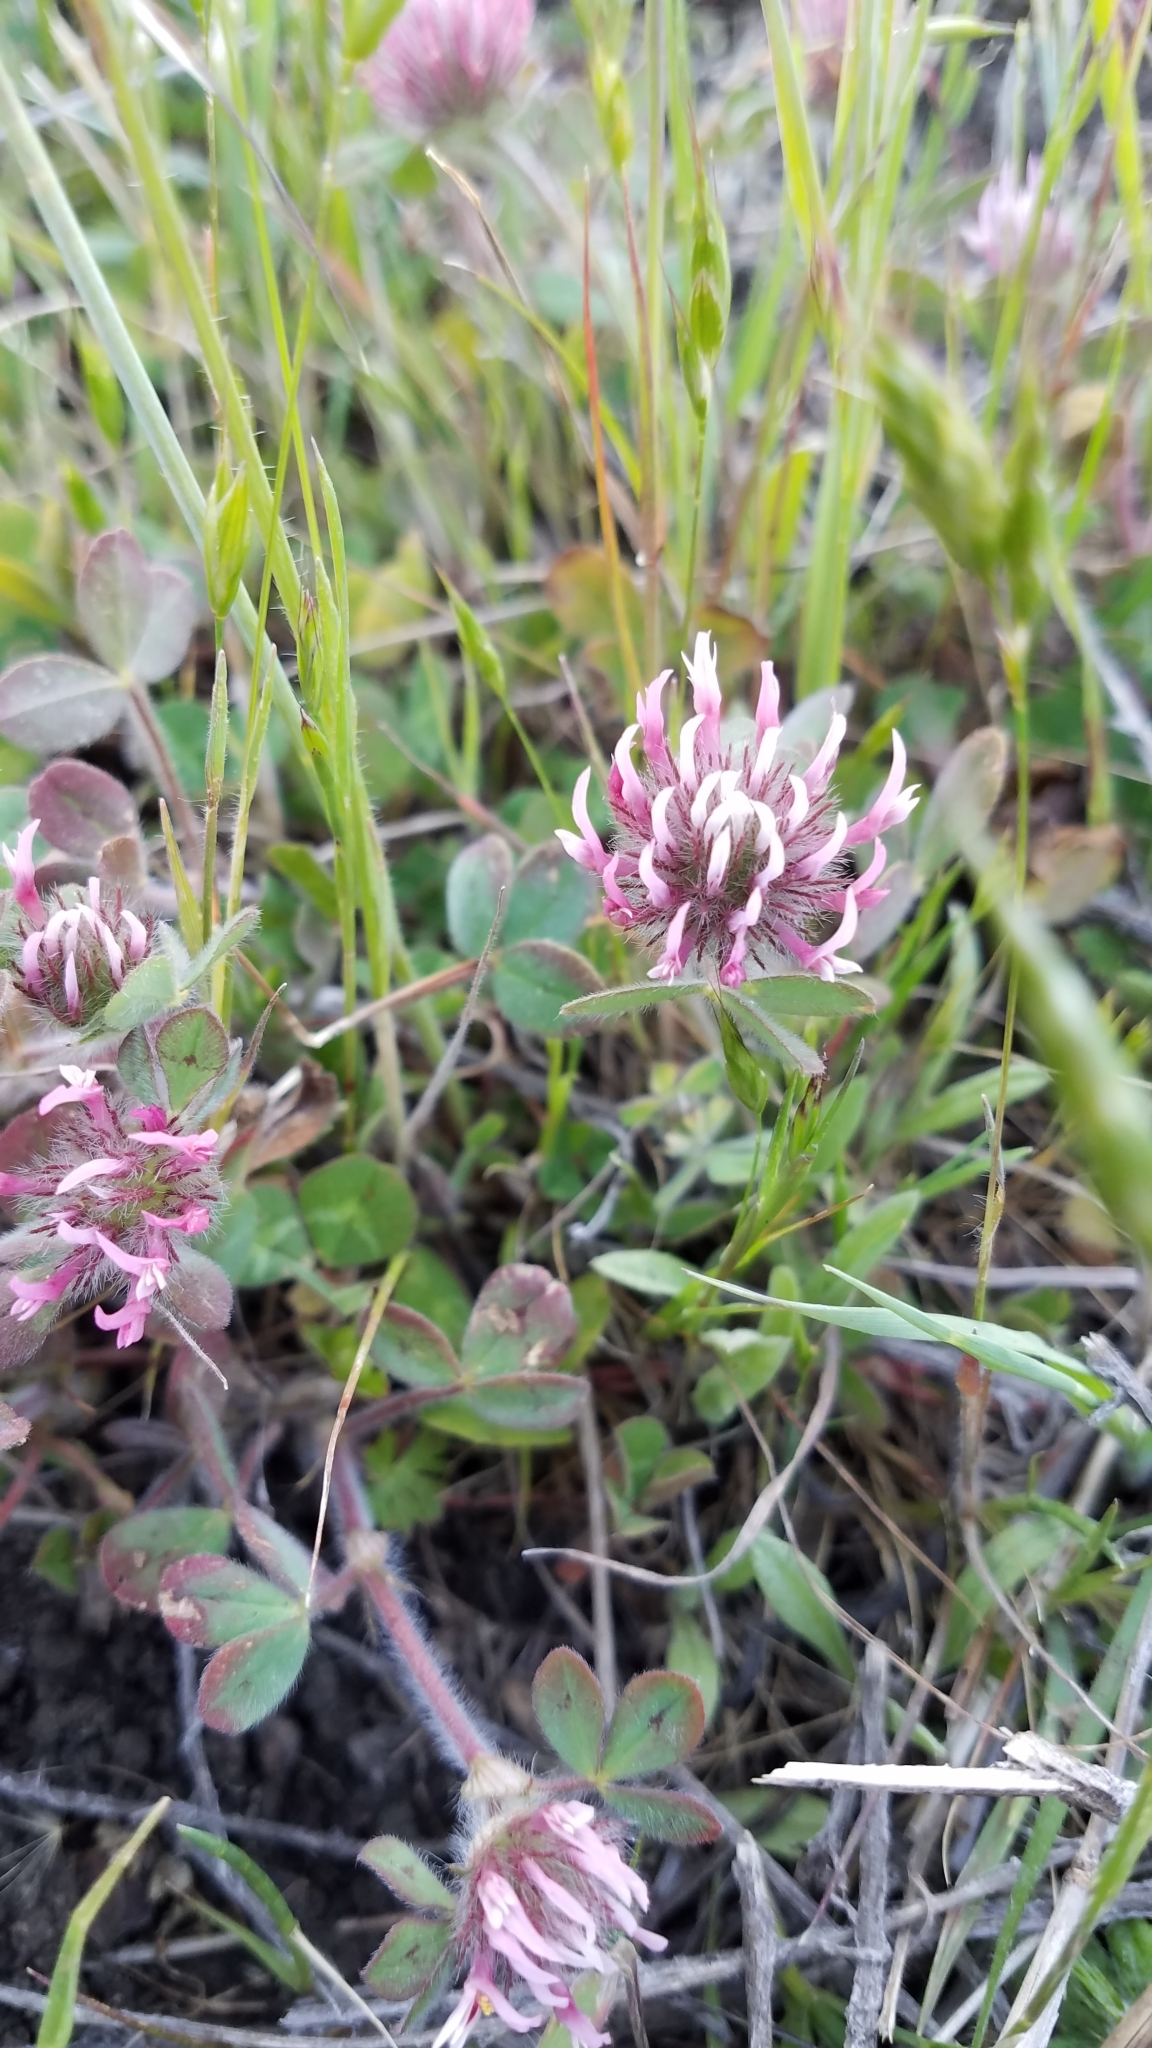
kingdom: Plantae
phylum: Tracheophyta
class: Magnoliopsida
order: Fabales
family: Fabaceae
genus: Trifolium
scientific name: Trifolium hirtum
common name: Rose clover
